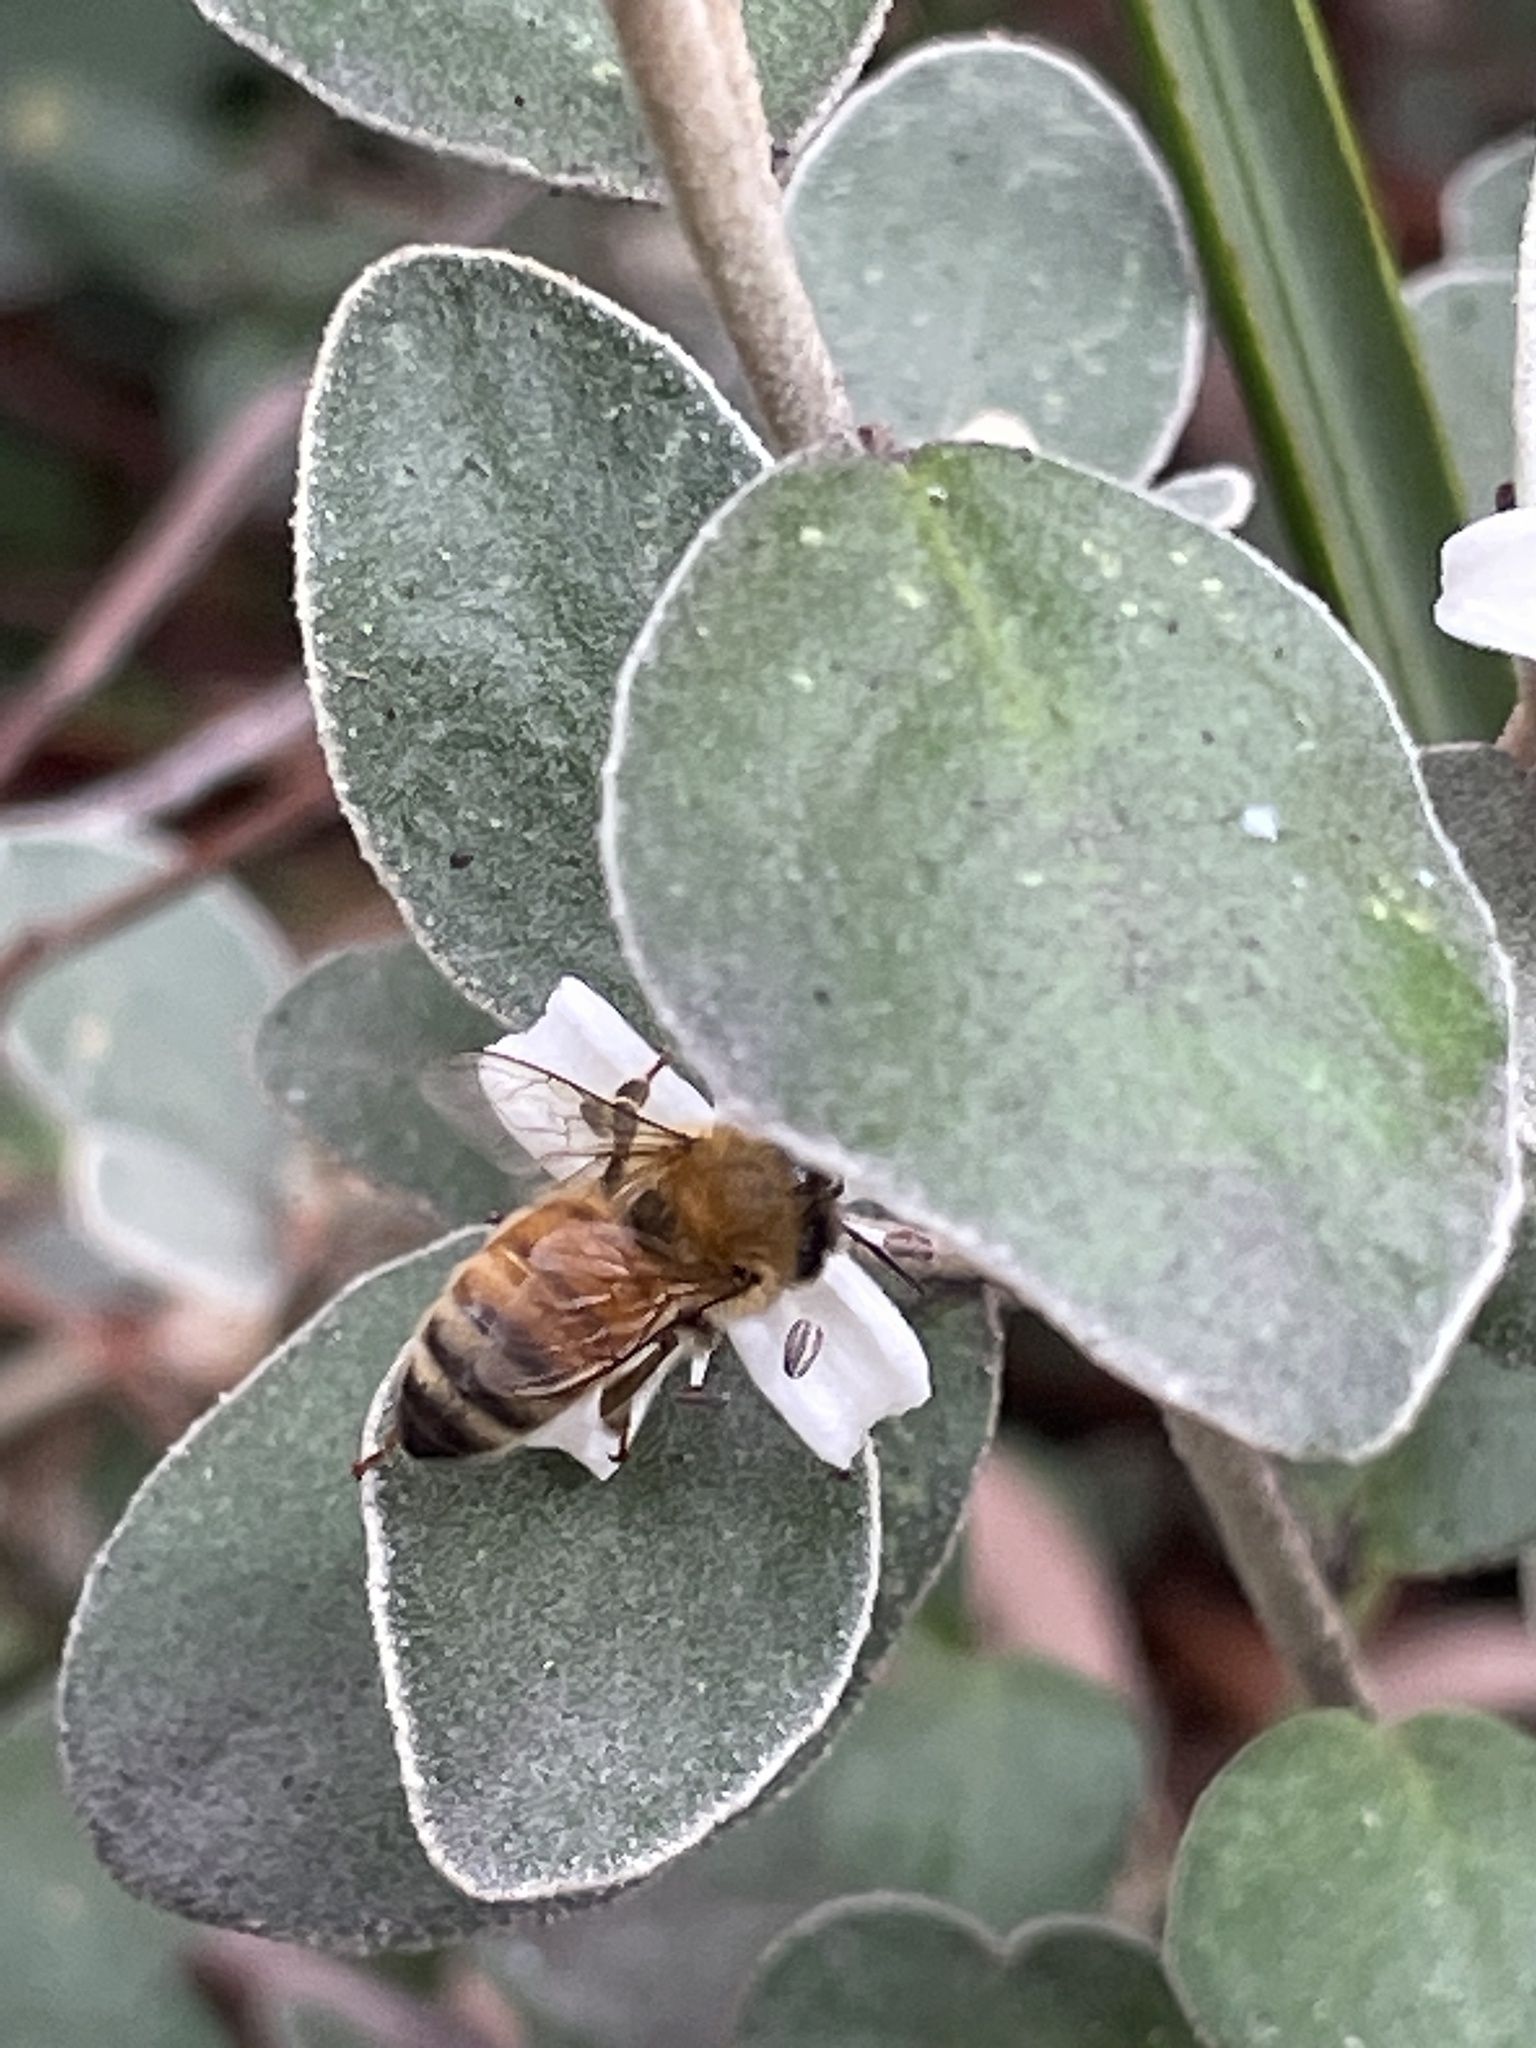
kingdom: Animalia
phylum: Arthropoda
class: Insecta
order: Hymenoptera
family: Apidae
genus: Apis
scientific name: Apis mellifera
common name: Honey bee
